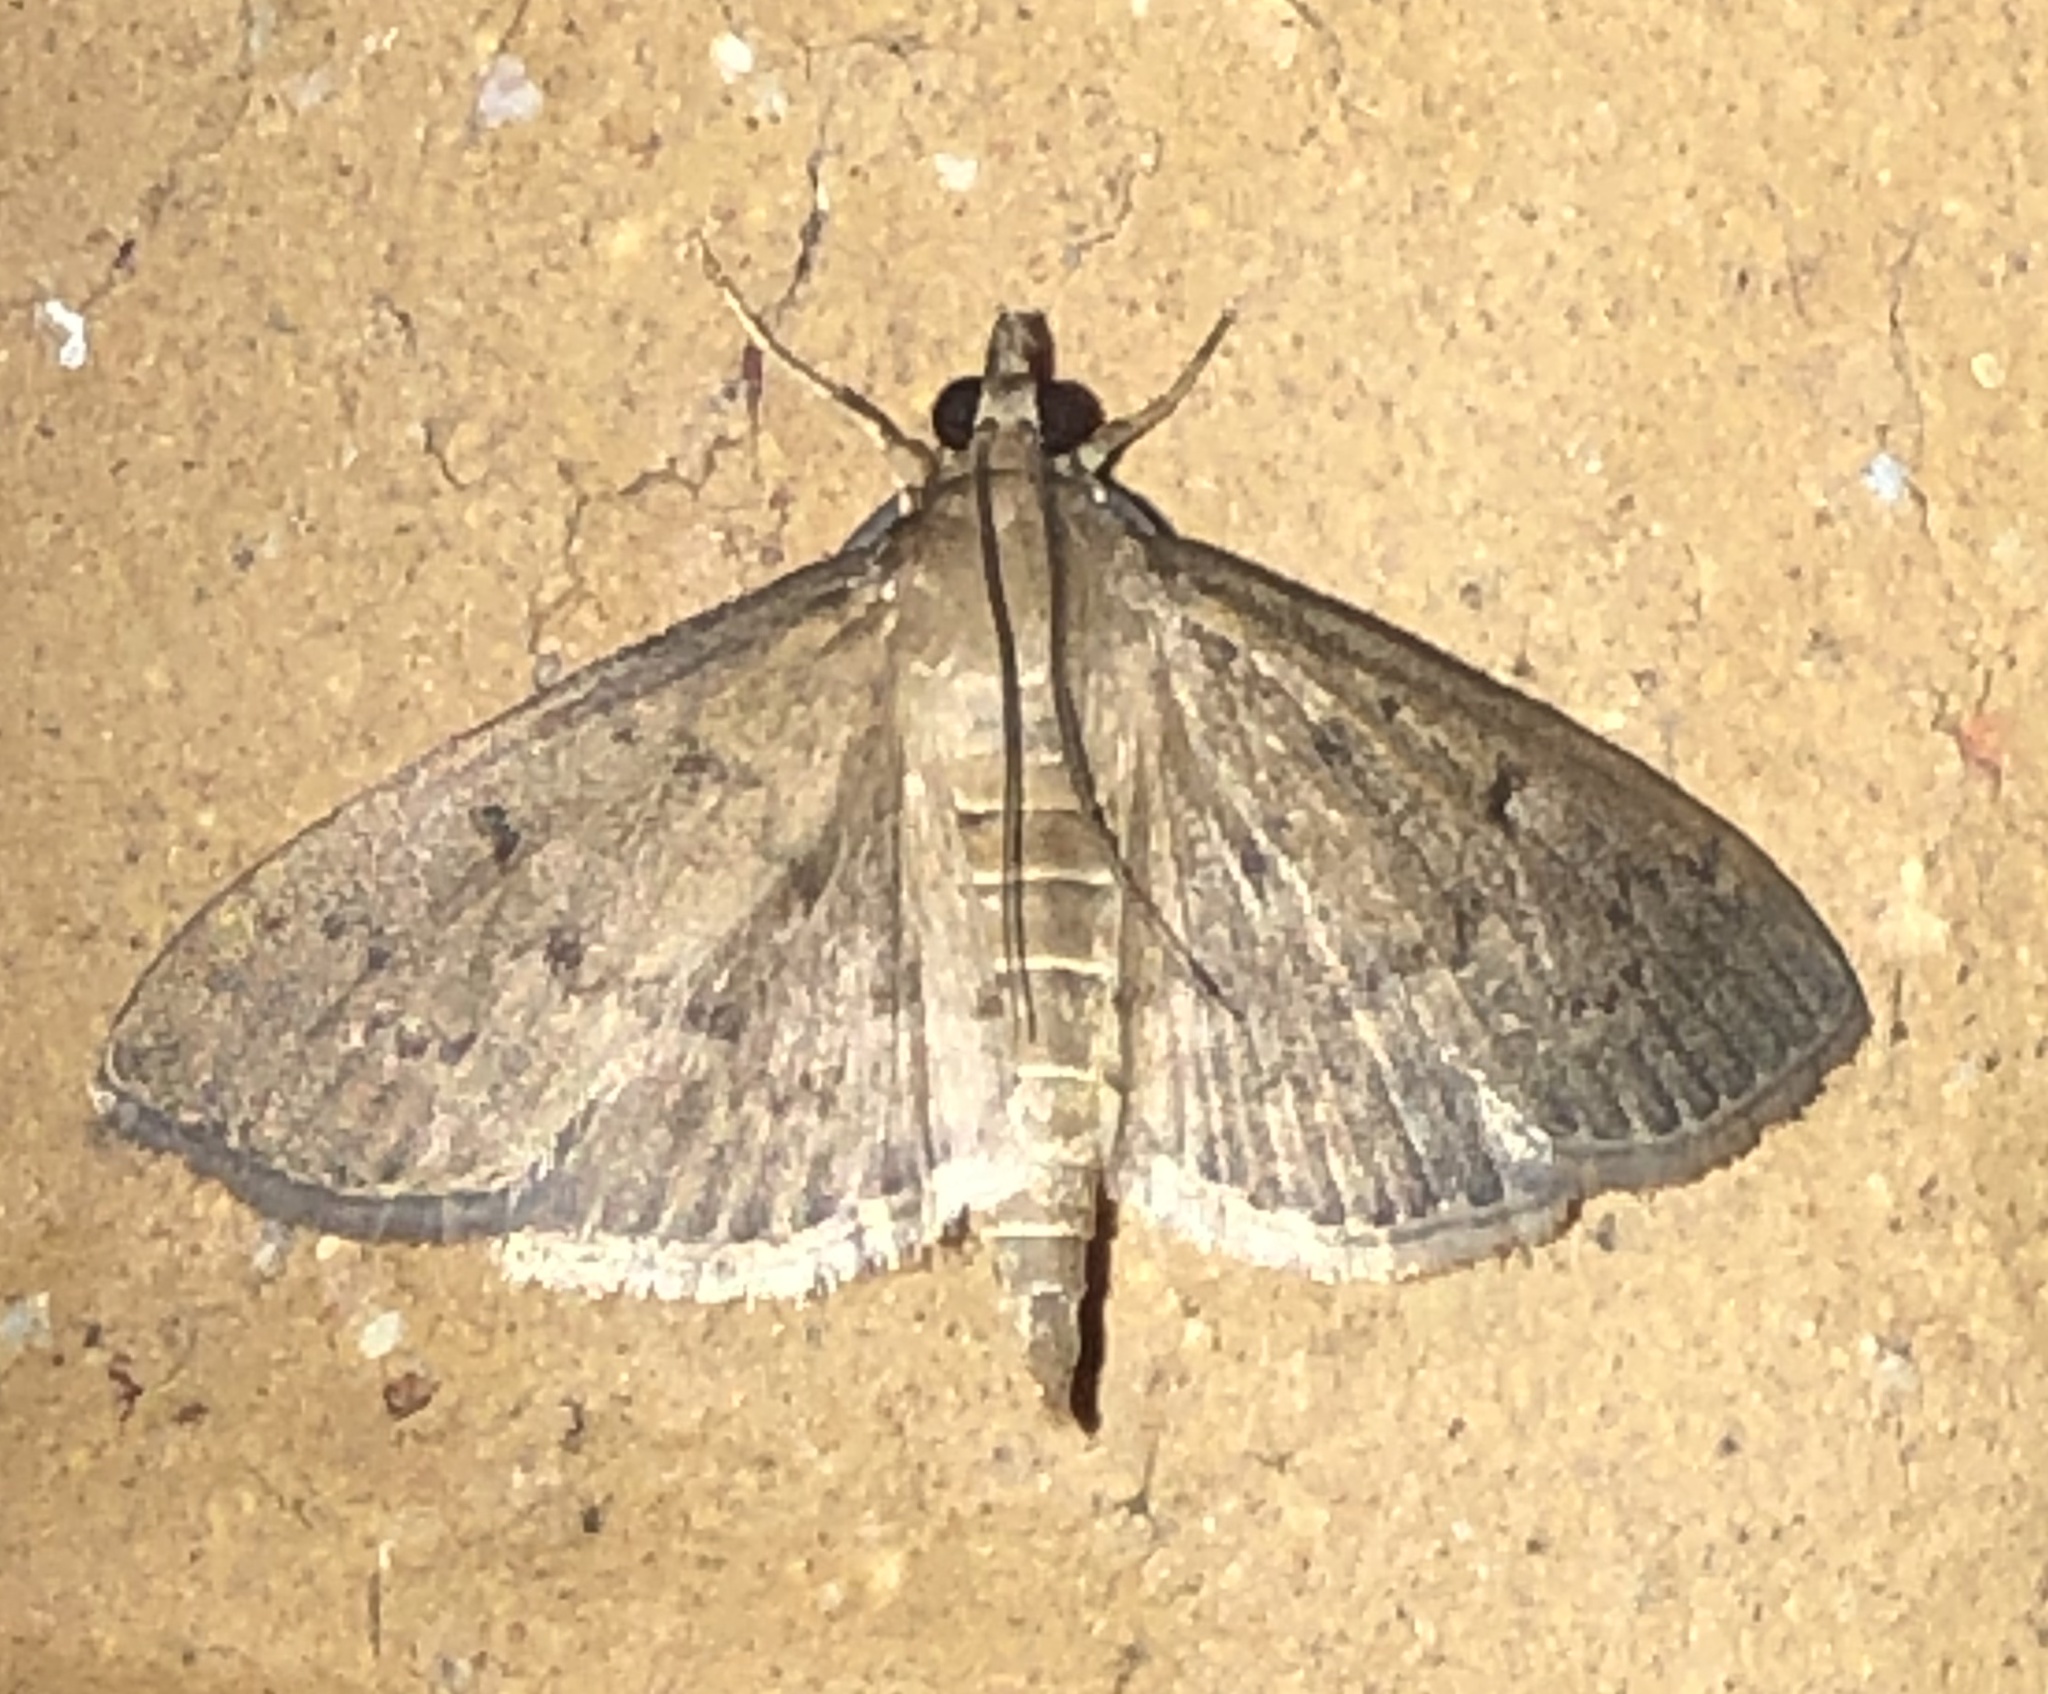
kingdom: Animalia
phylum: Arthropoda
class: Insecta
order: Lepidoptera
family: Crambidae
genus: Herpetogramma
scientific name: Herpetogramma licarsisalis
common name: Grass webworm
